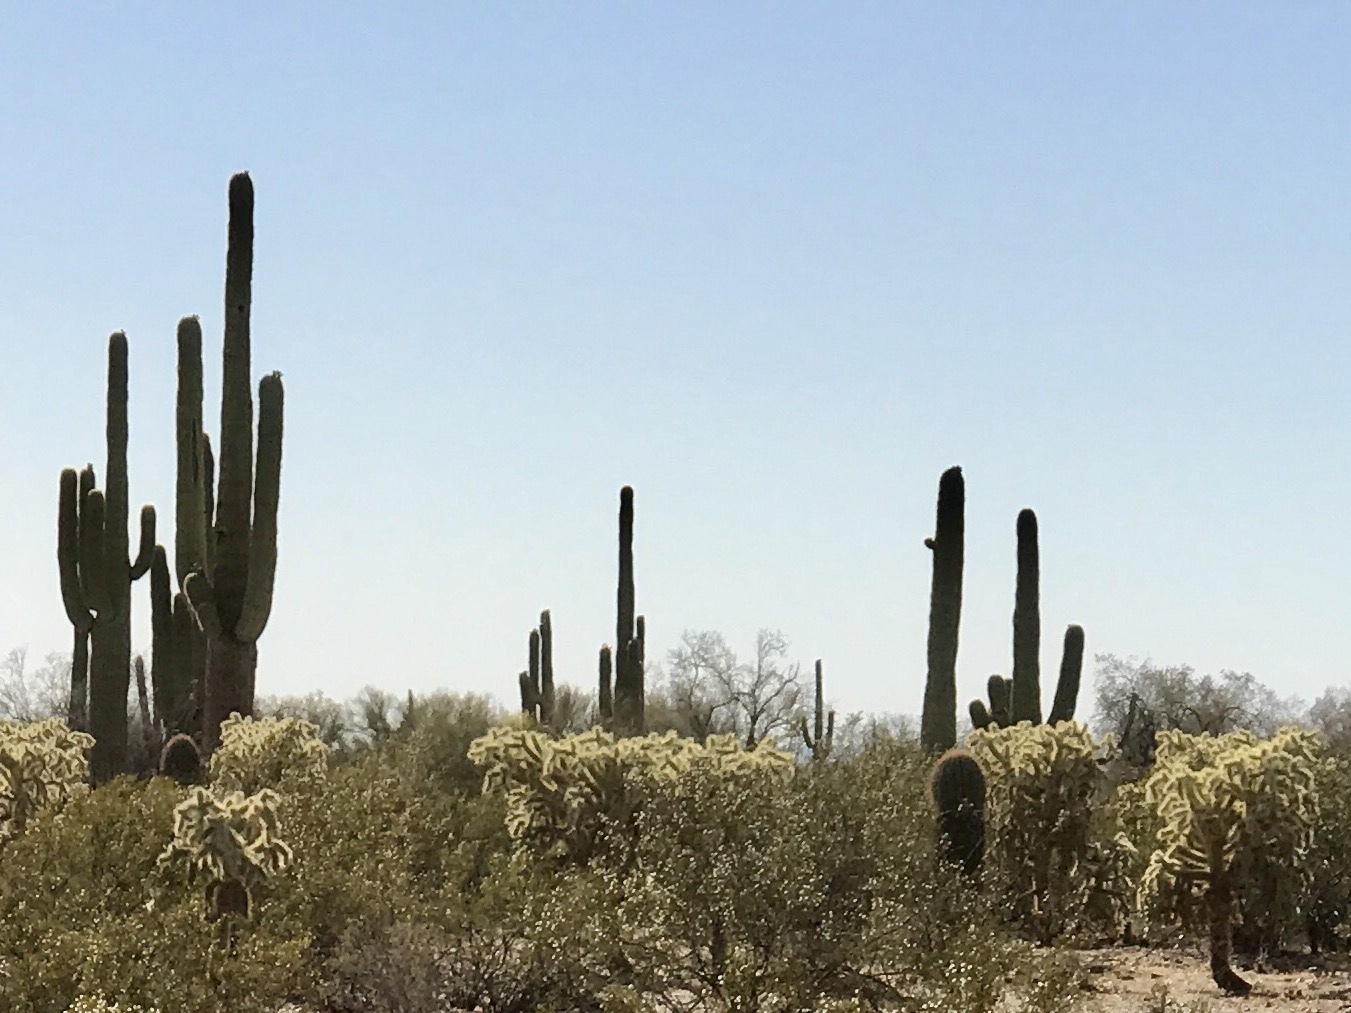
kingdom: Plantae
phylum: Tracheophyta
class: Magnoliopsida
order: Caryophyllales
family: Cactaceae
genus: Carnegiea
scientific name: Carnegiea gigantea
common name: Saguaro
